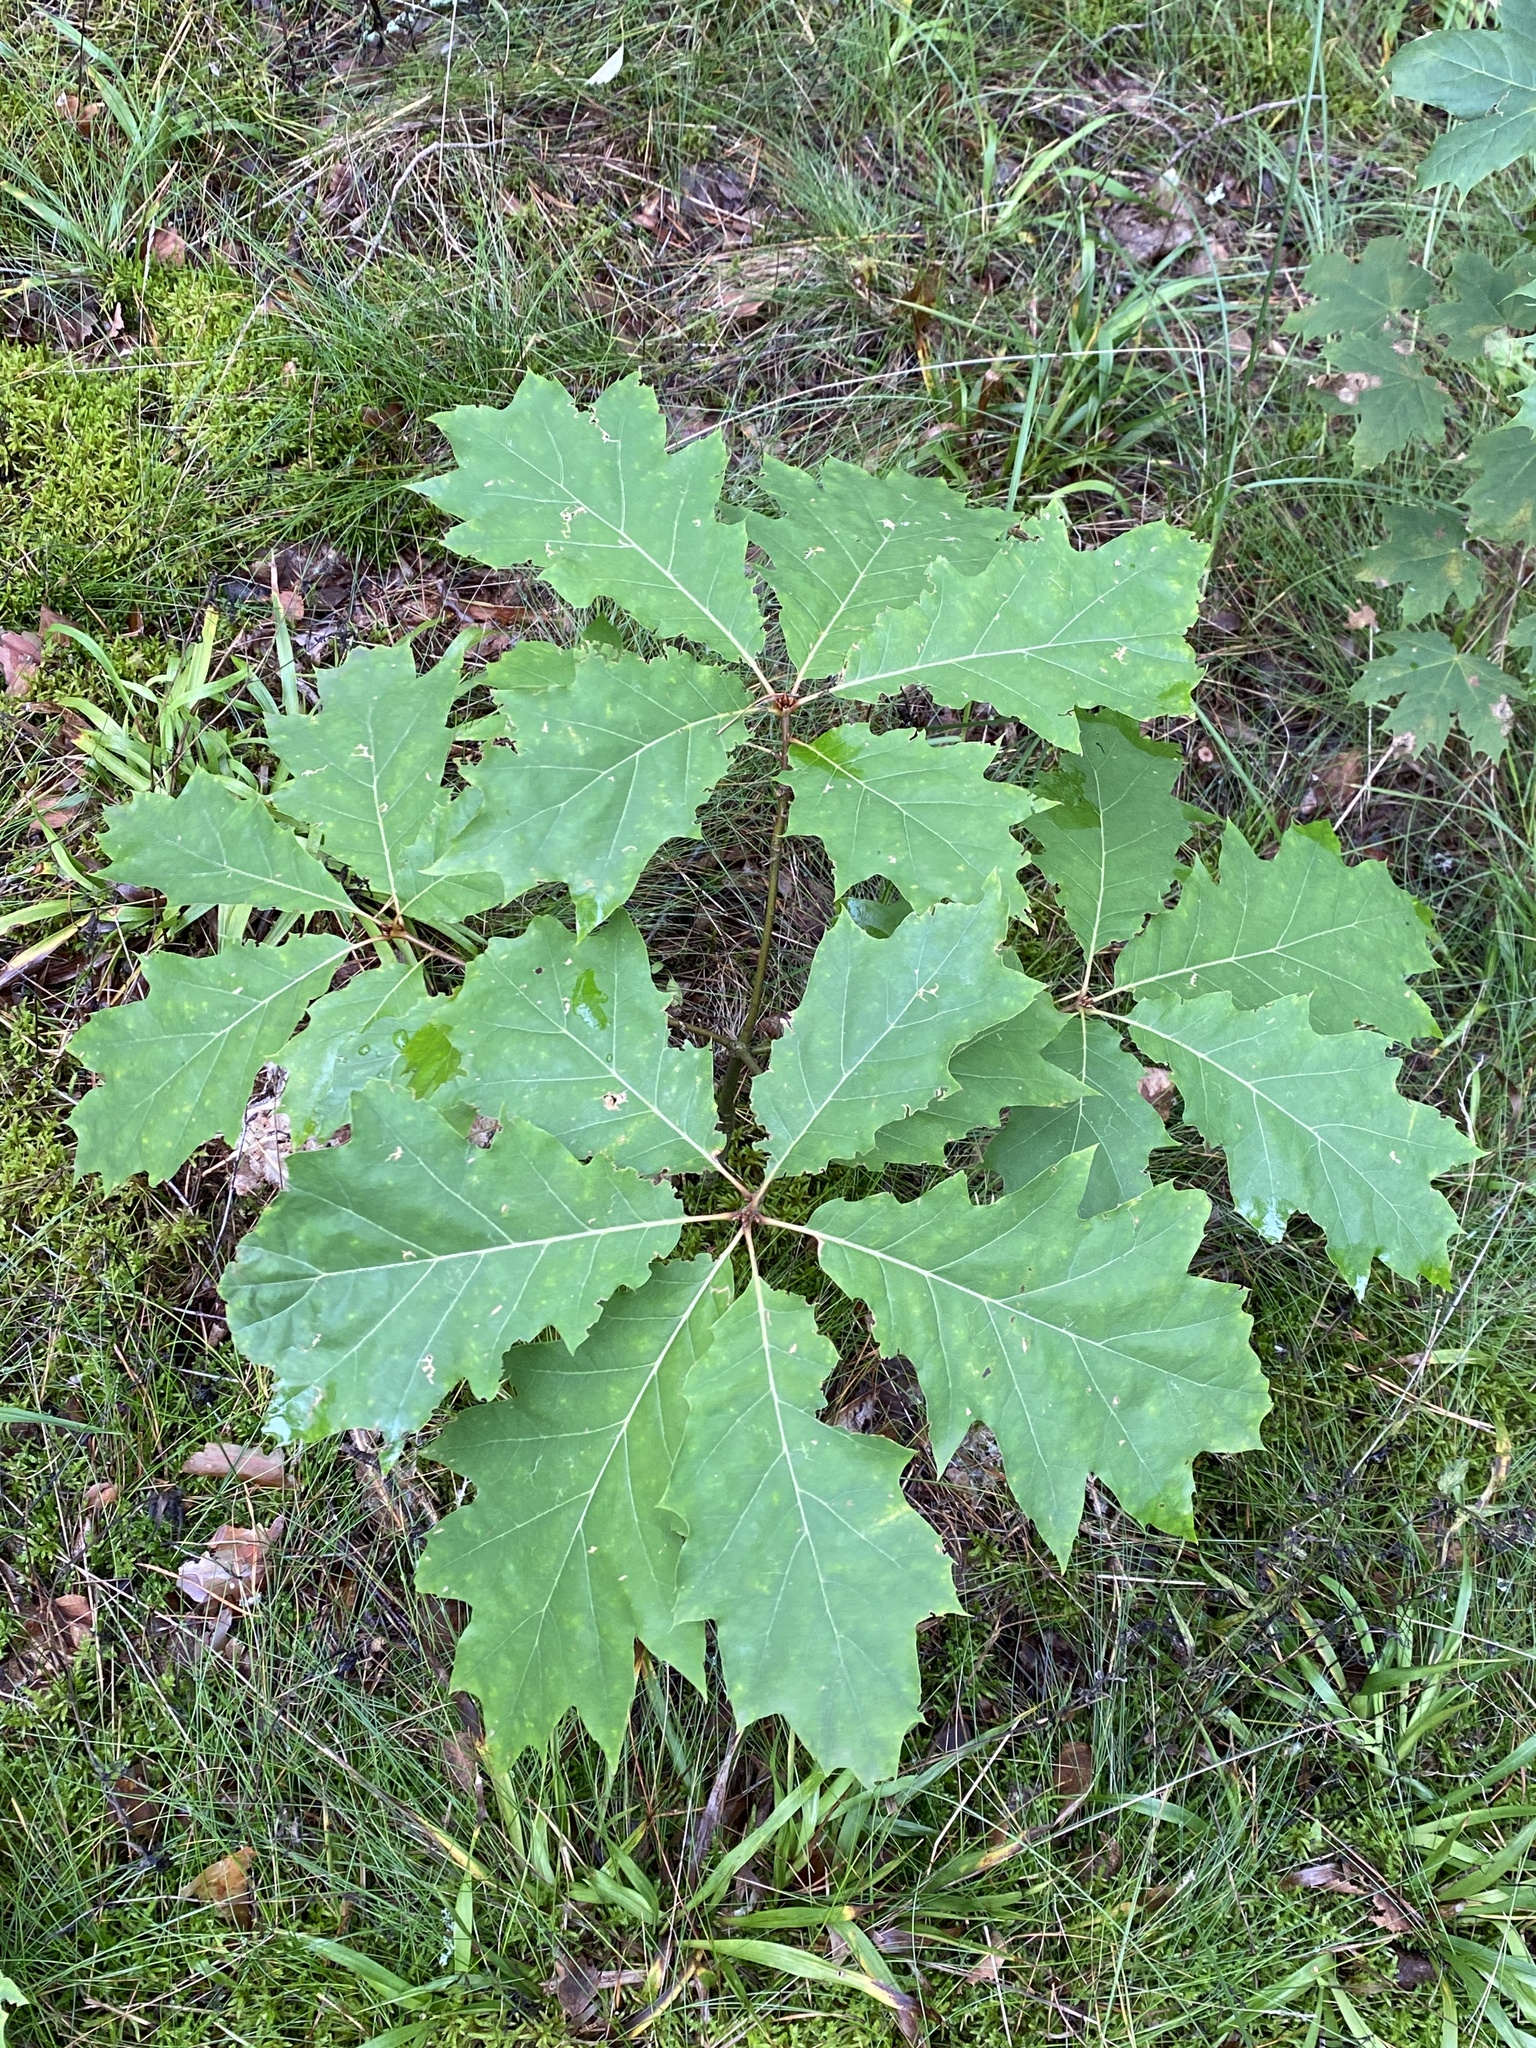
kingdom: Plantae
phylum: Tracheophyta
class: Magnoliopsida
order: Fagales
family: Fagaceae
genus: Quercus
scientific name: Quercus rubra
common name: Red oak
